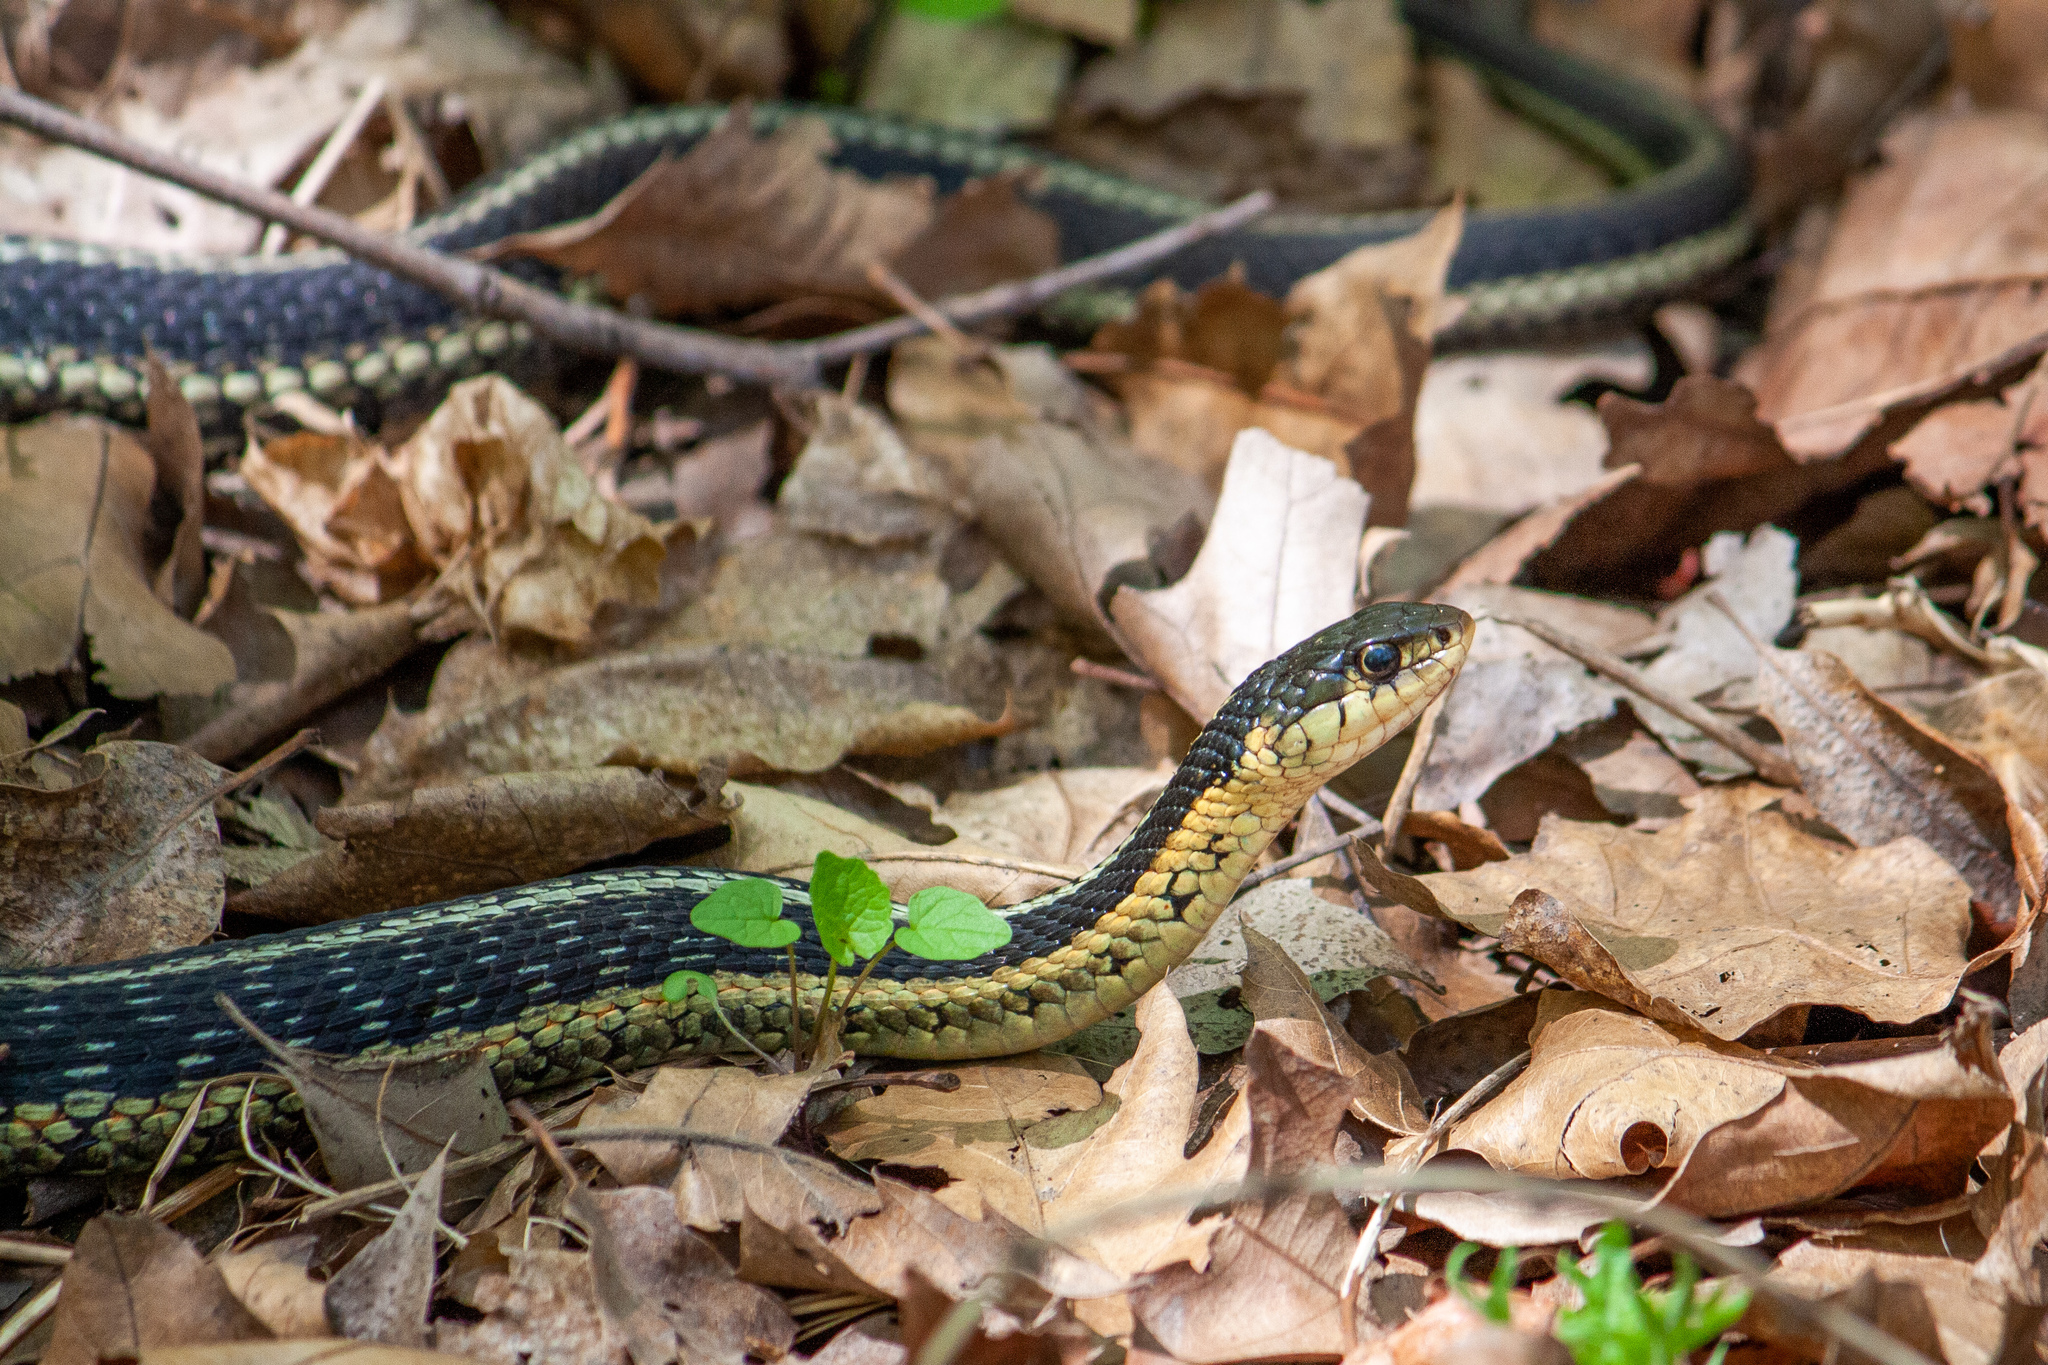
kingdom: Animalia
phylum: Chordata
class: Squamata
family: Colubridae
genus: Thamnophis
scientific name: Thamnophis sirtalis
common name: Common garter snake
